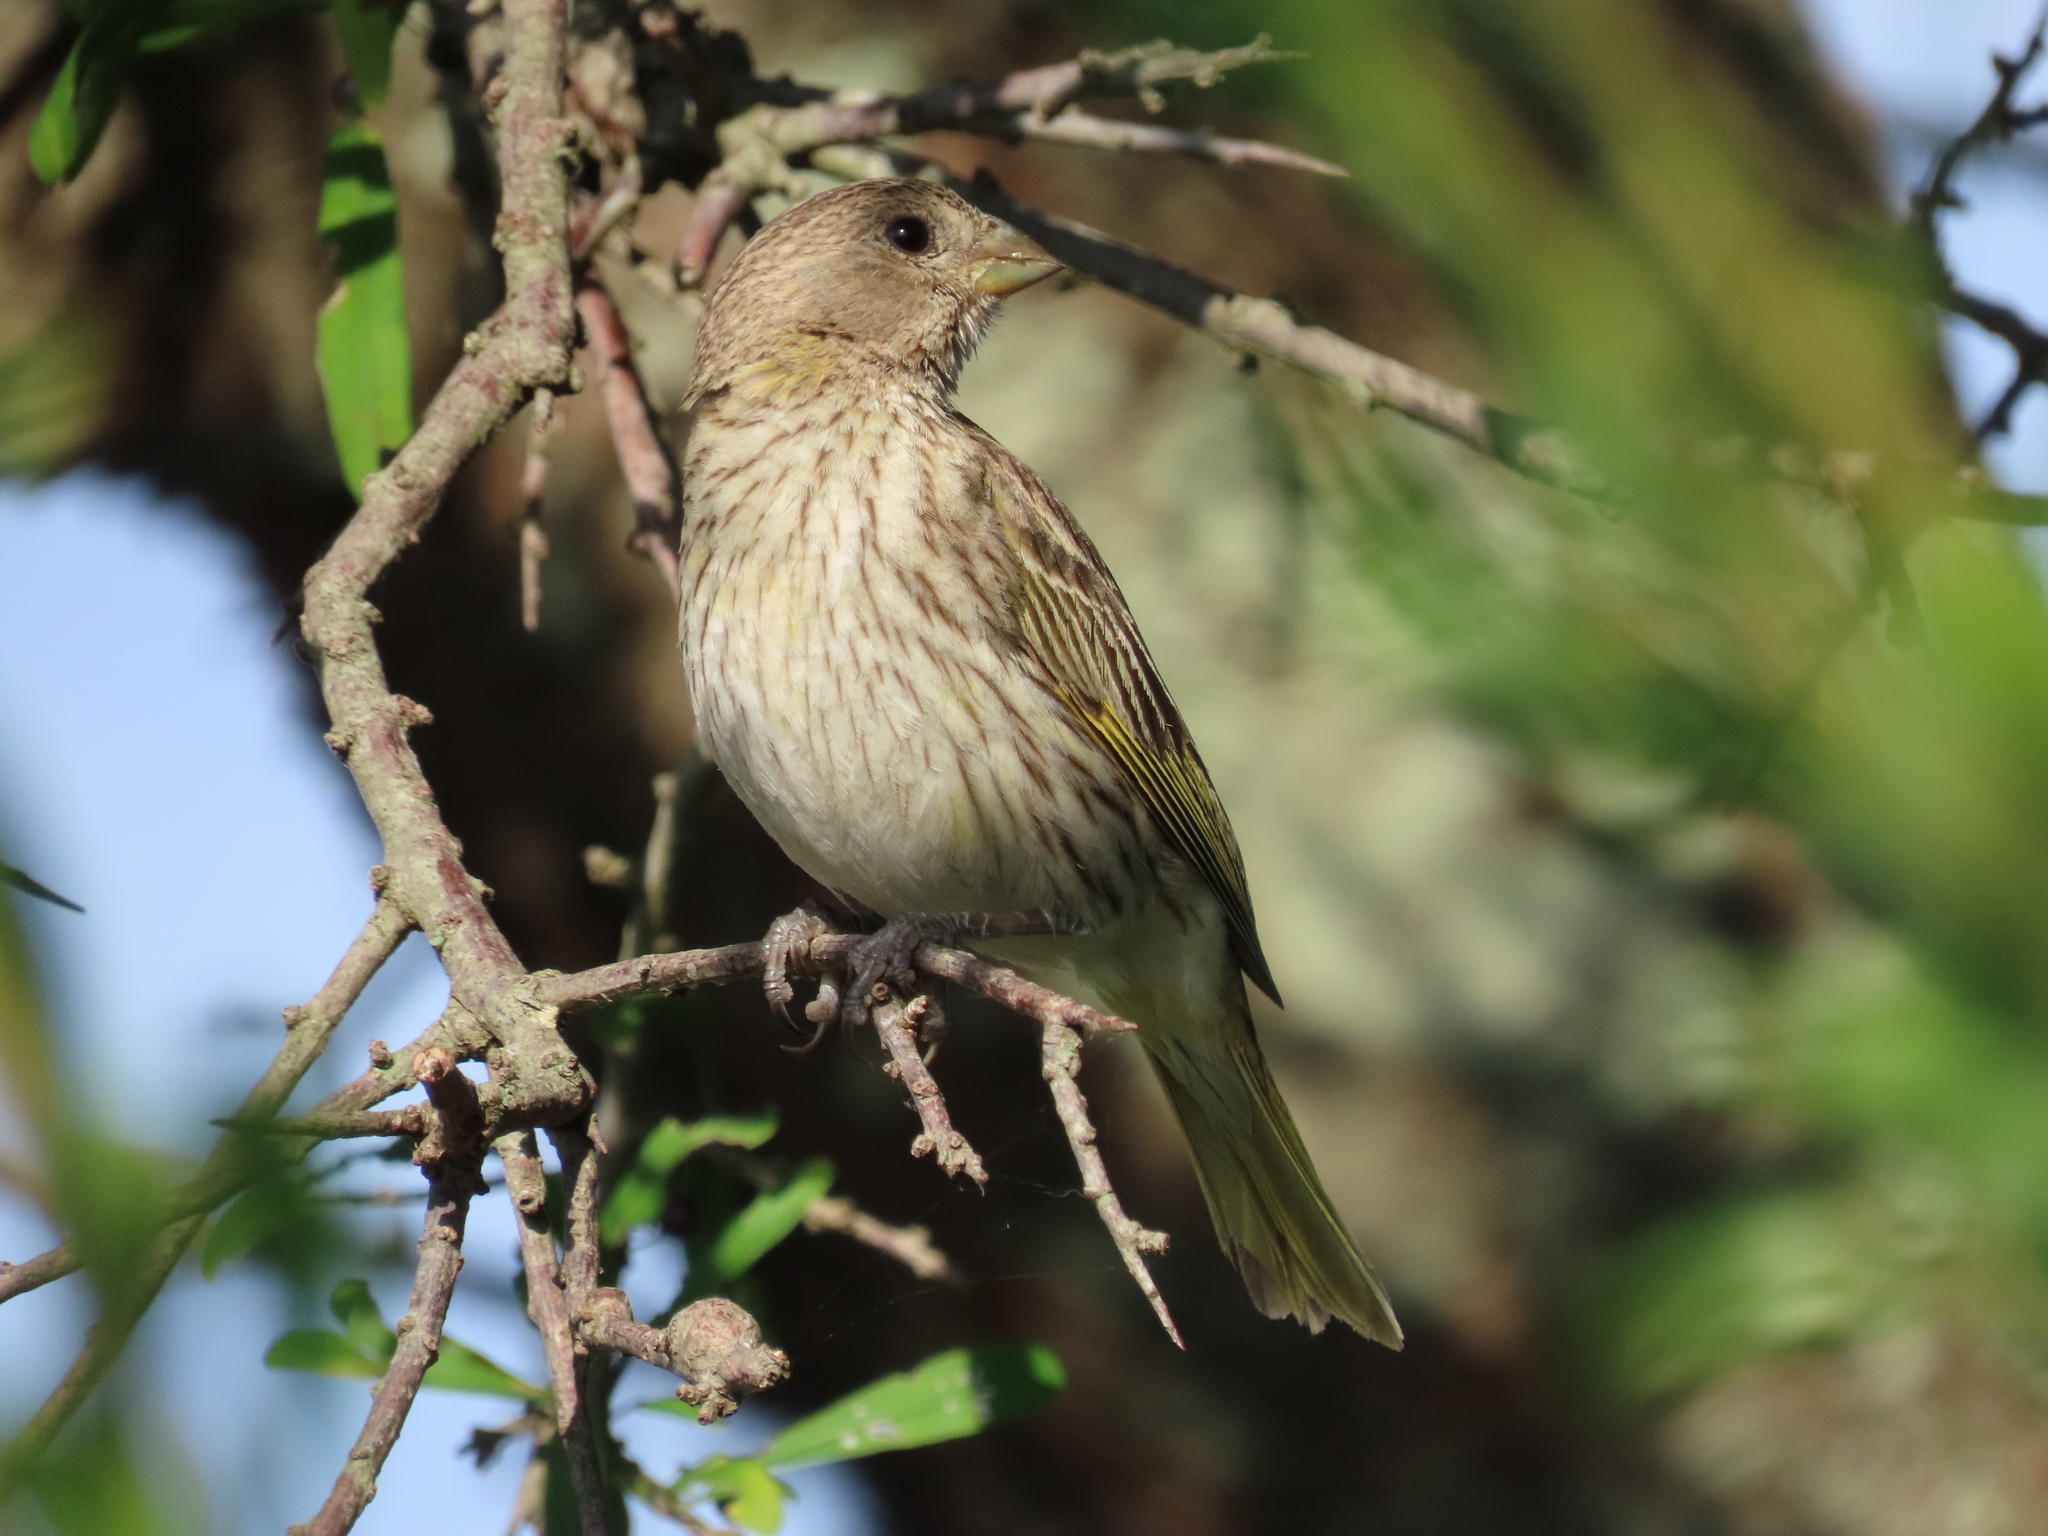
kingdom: Animalia
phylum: Chordata
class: Aves
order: Passeriformes
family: Thraupidae
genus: Sicalis
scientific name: Sicalis flaveola
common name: Saffron finch
